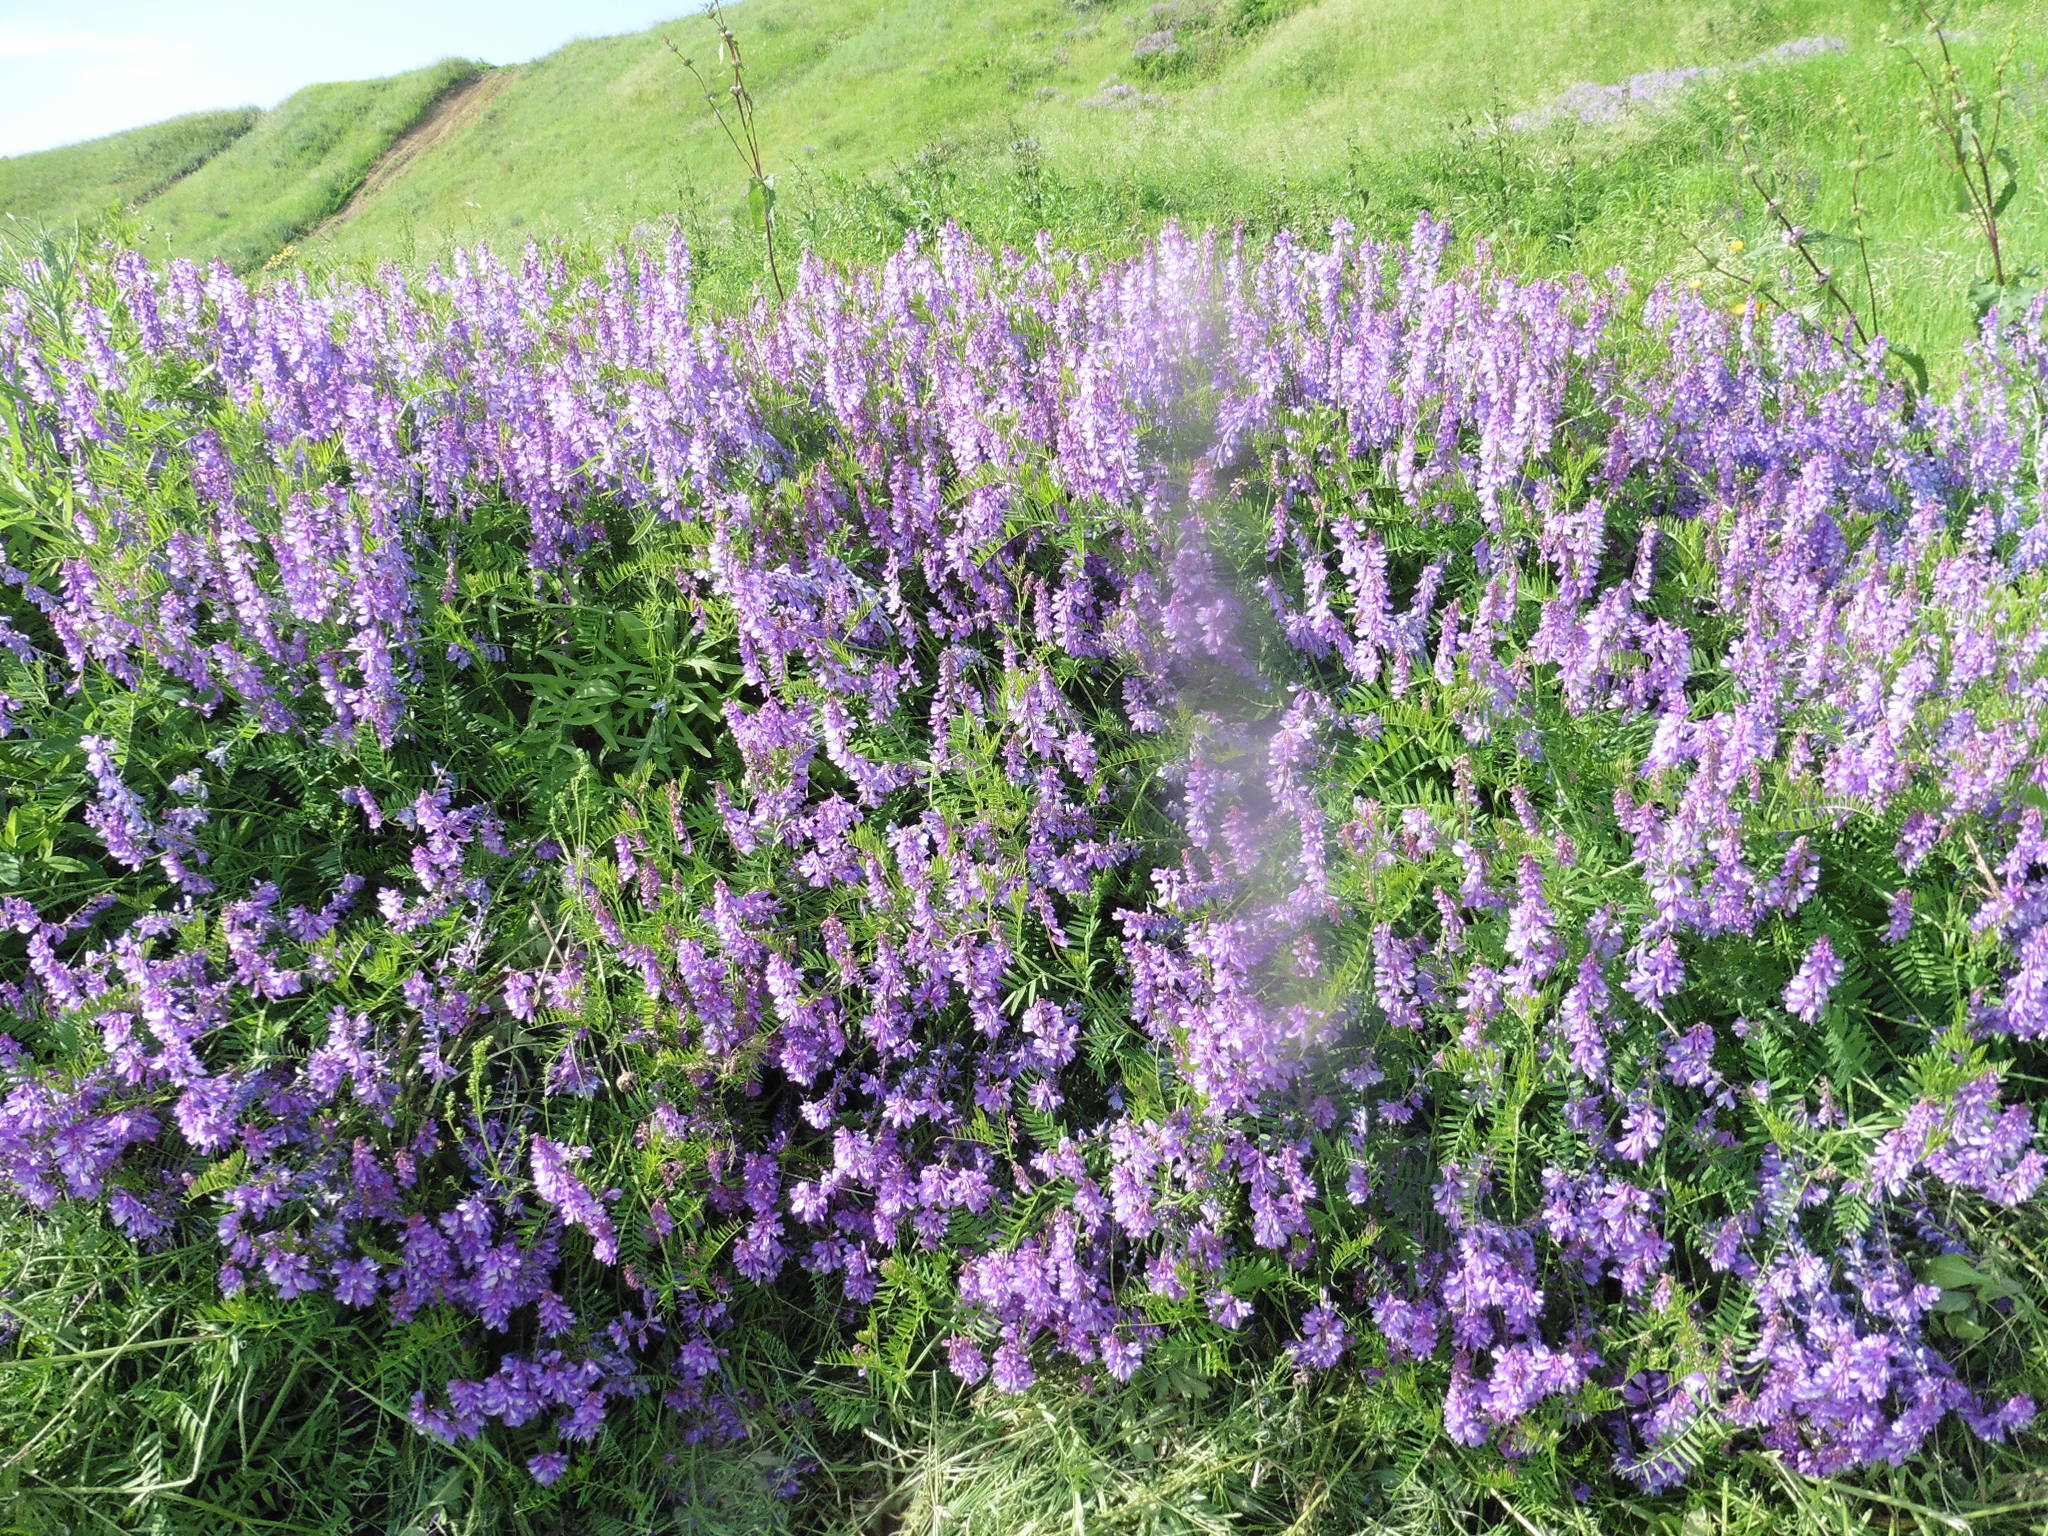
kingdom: Plantae
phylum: Tracheophyta
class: Magnoliopsida
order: Fabales
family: Fabaceae
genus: Vicia
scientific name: Vicia tenuifolia
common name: Fine-leaved vetch
